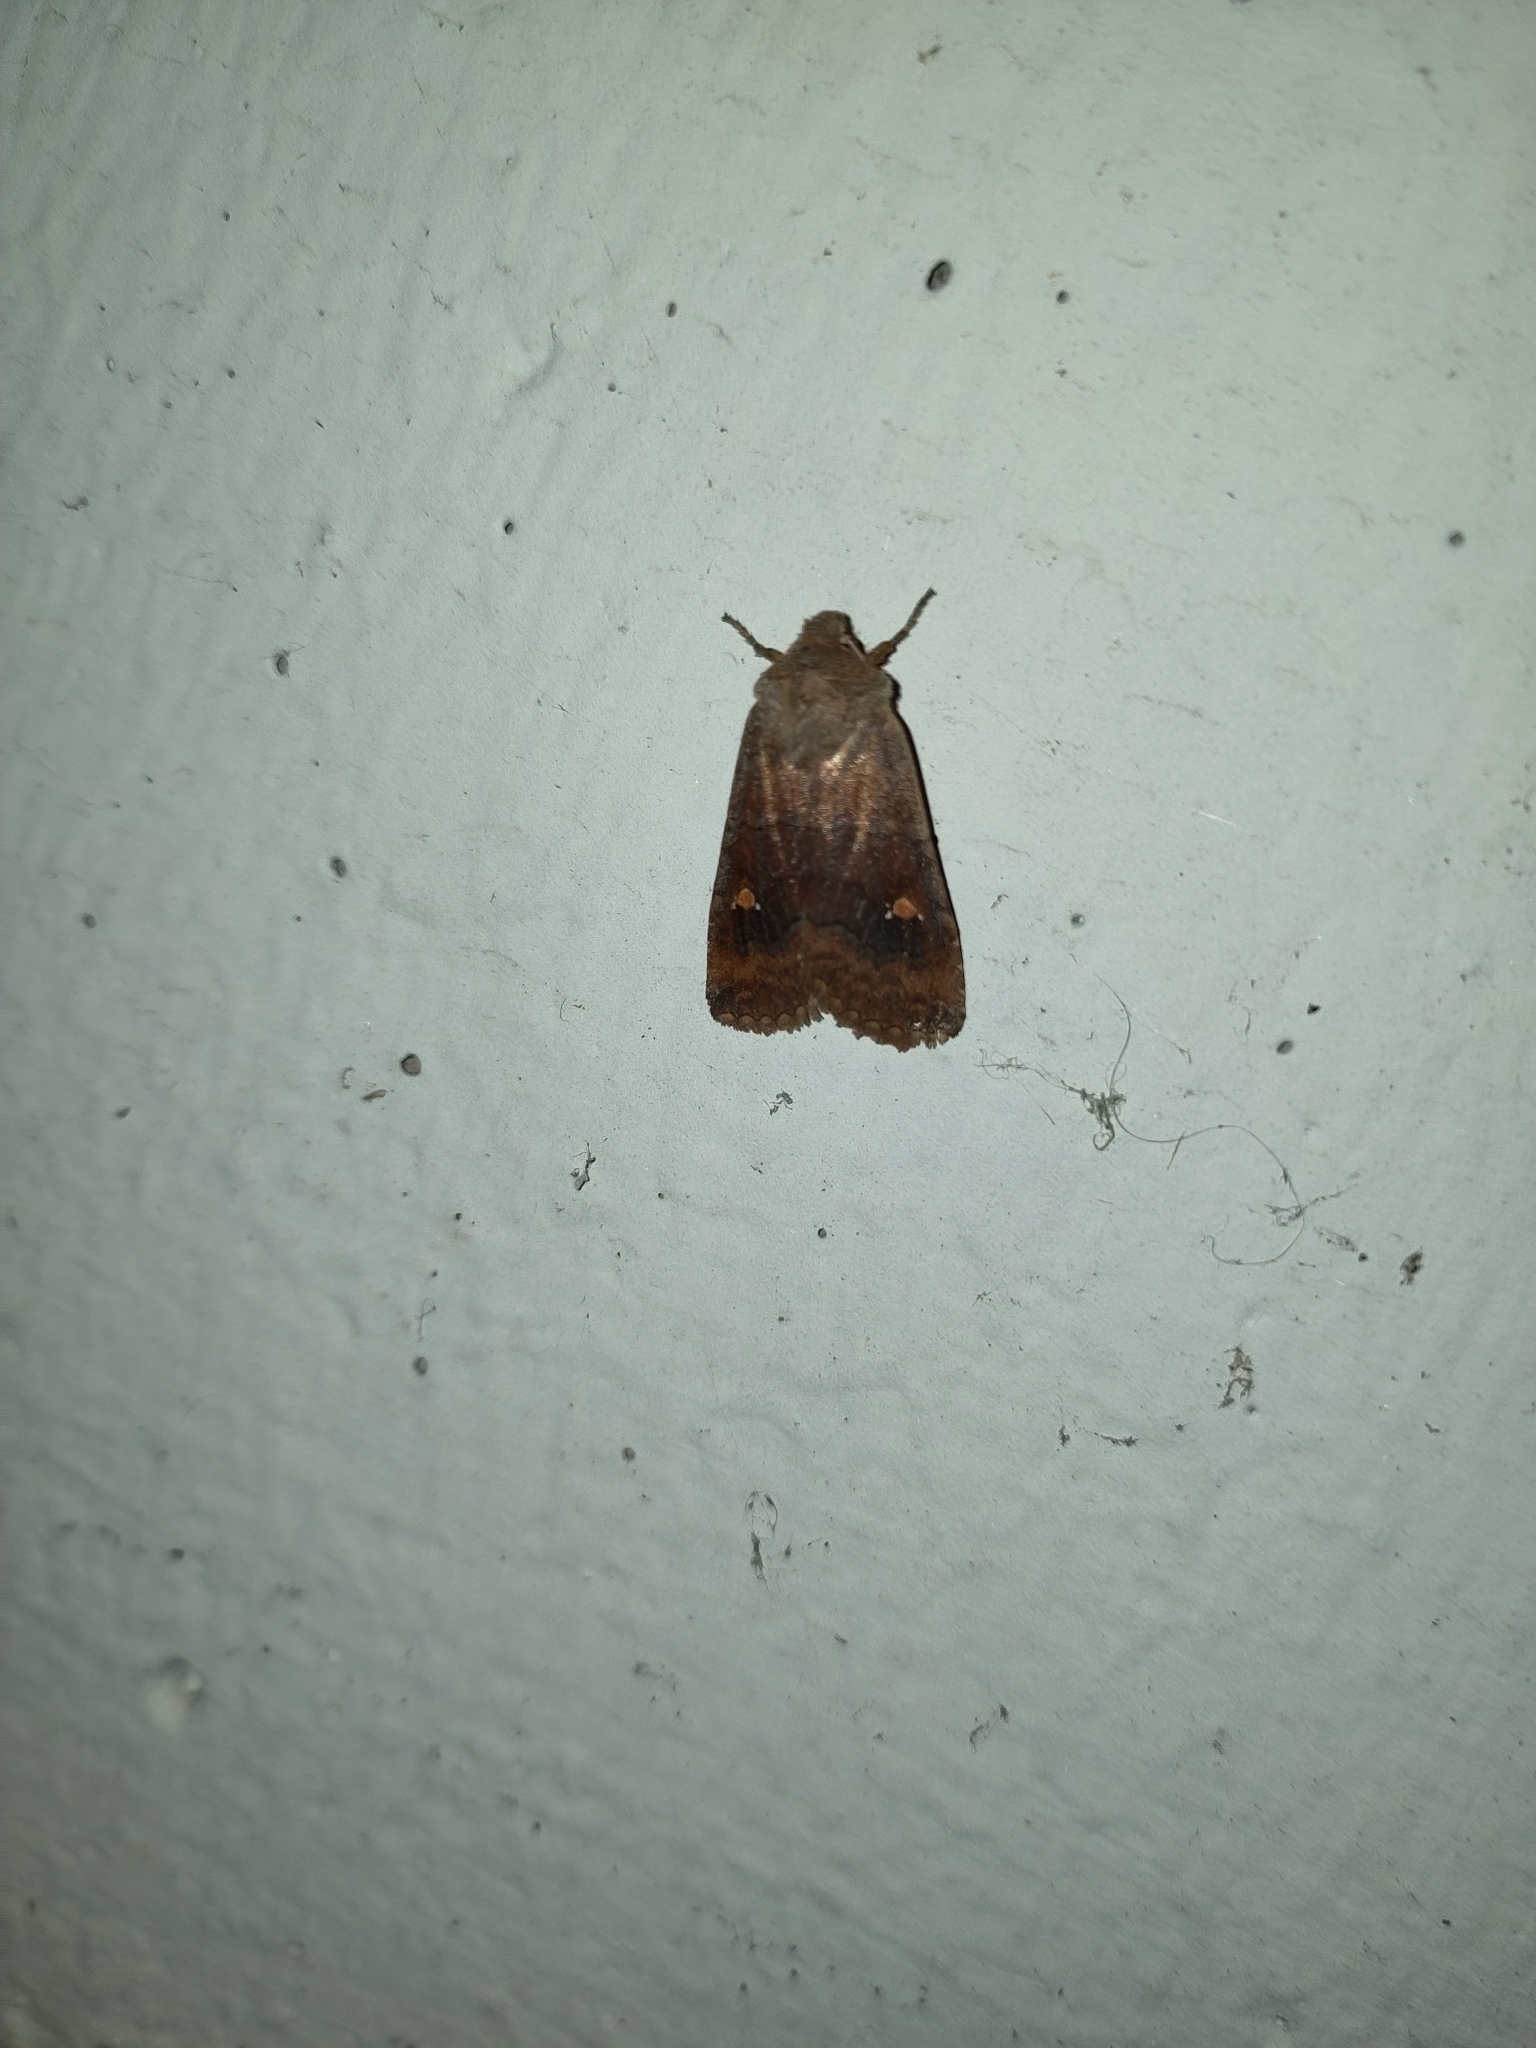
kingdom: Animalia
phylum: Arthropoda
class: Insecta
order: Lepidoptera
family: Noctuidae
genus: Eupsilia
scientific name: Eupsilia transversa
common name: Satellite
